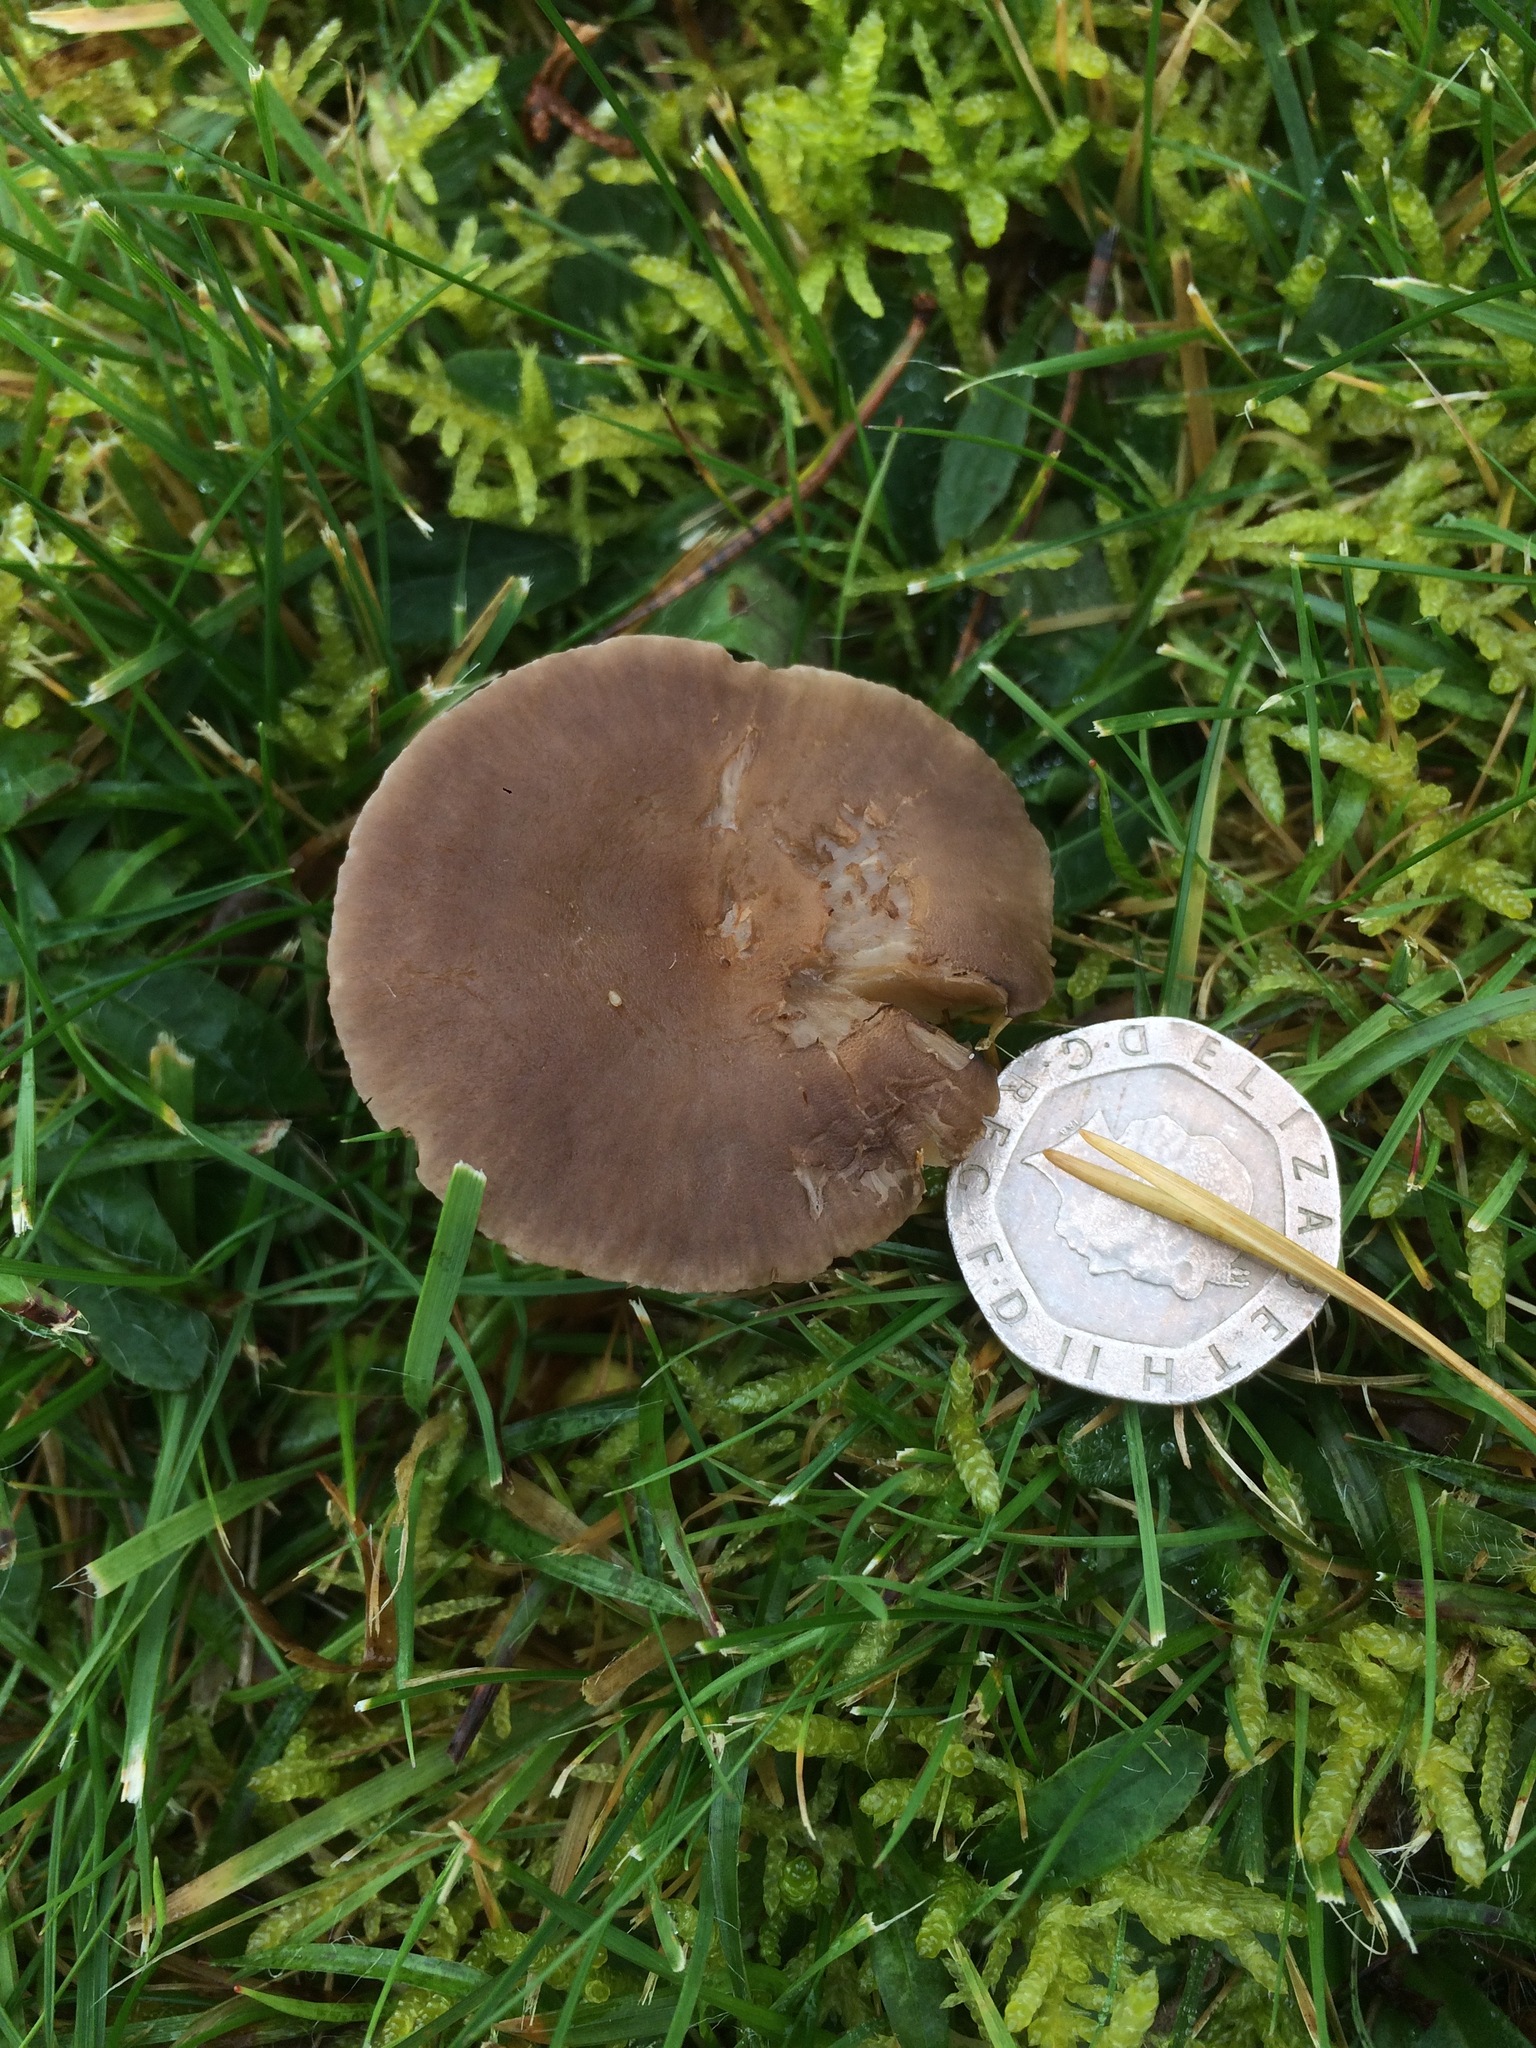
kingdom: Fungi
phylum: Basidiomycota
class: Agaricomycetes
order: Agaricales
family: Tricholomataceae
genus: Dermoloma
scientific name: Dermoloma cuneifolium
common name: Crazed cap
